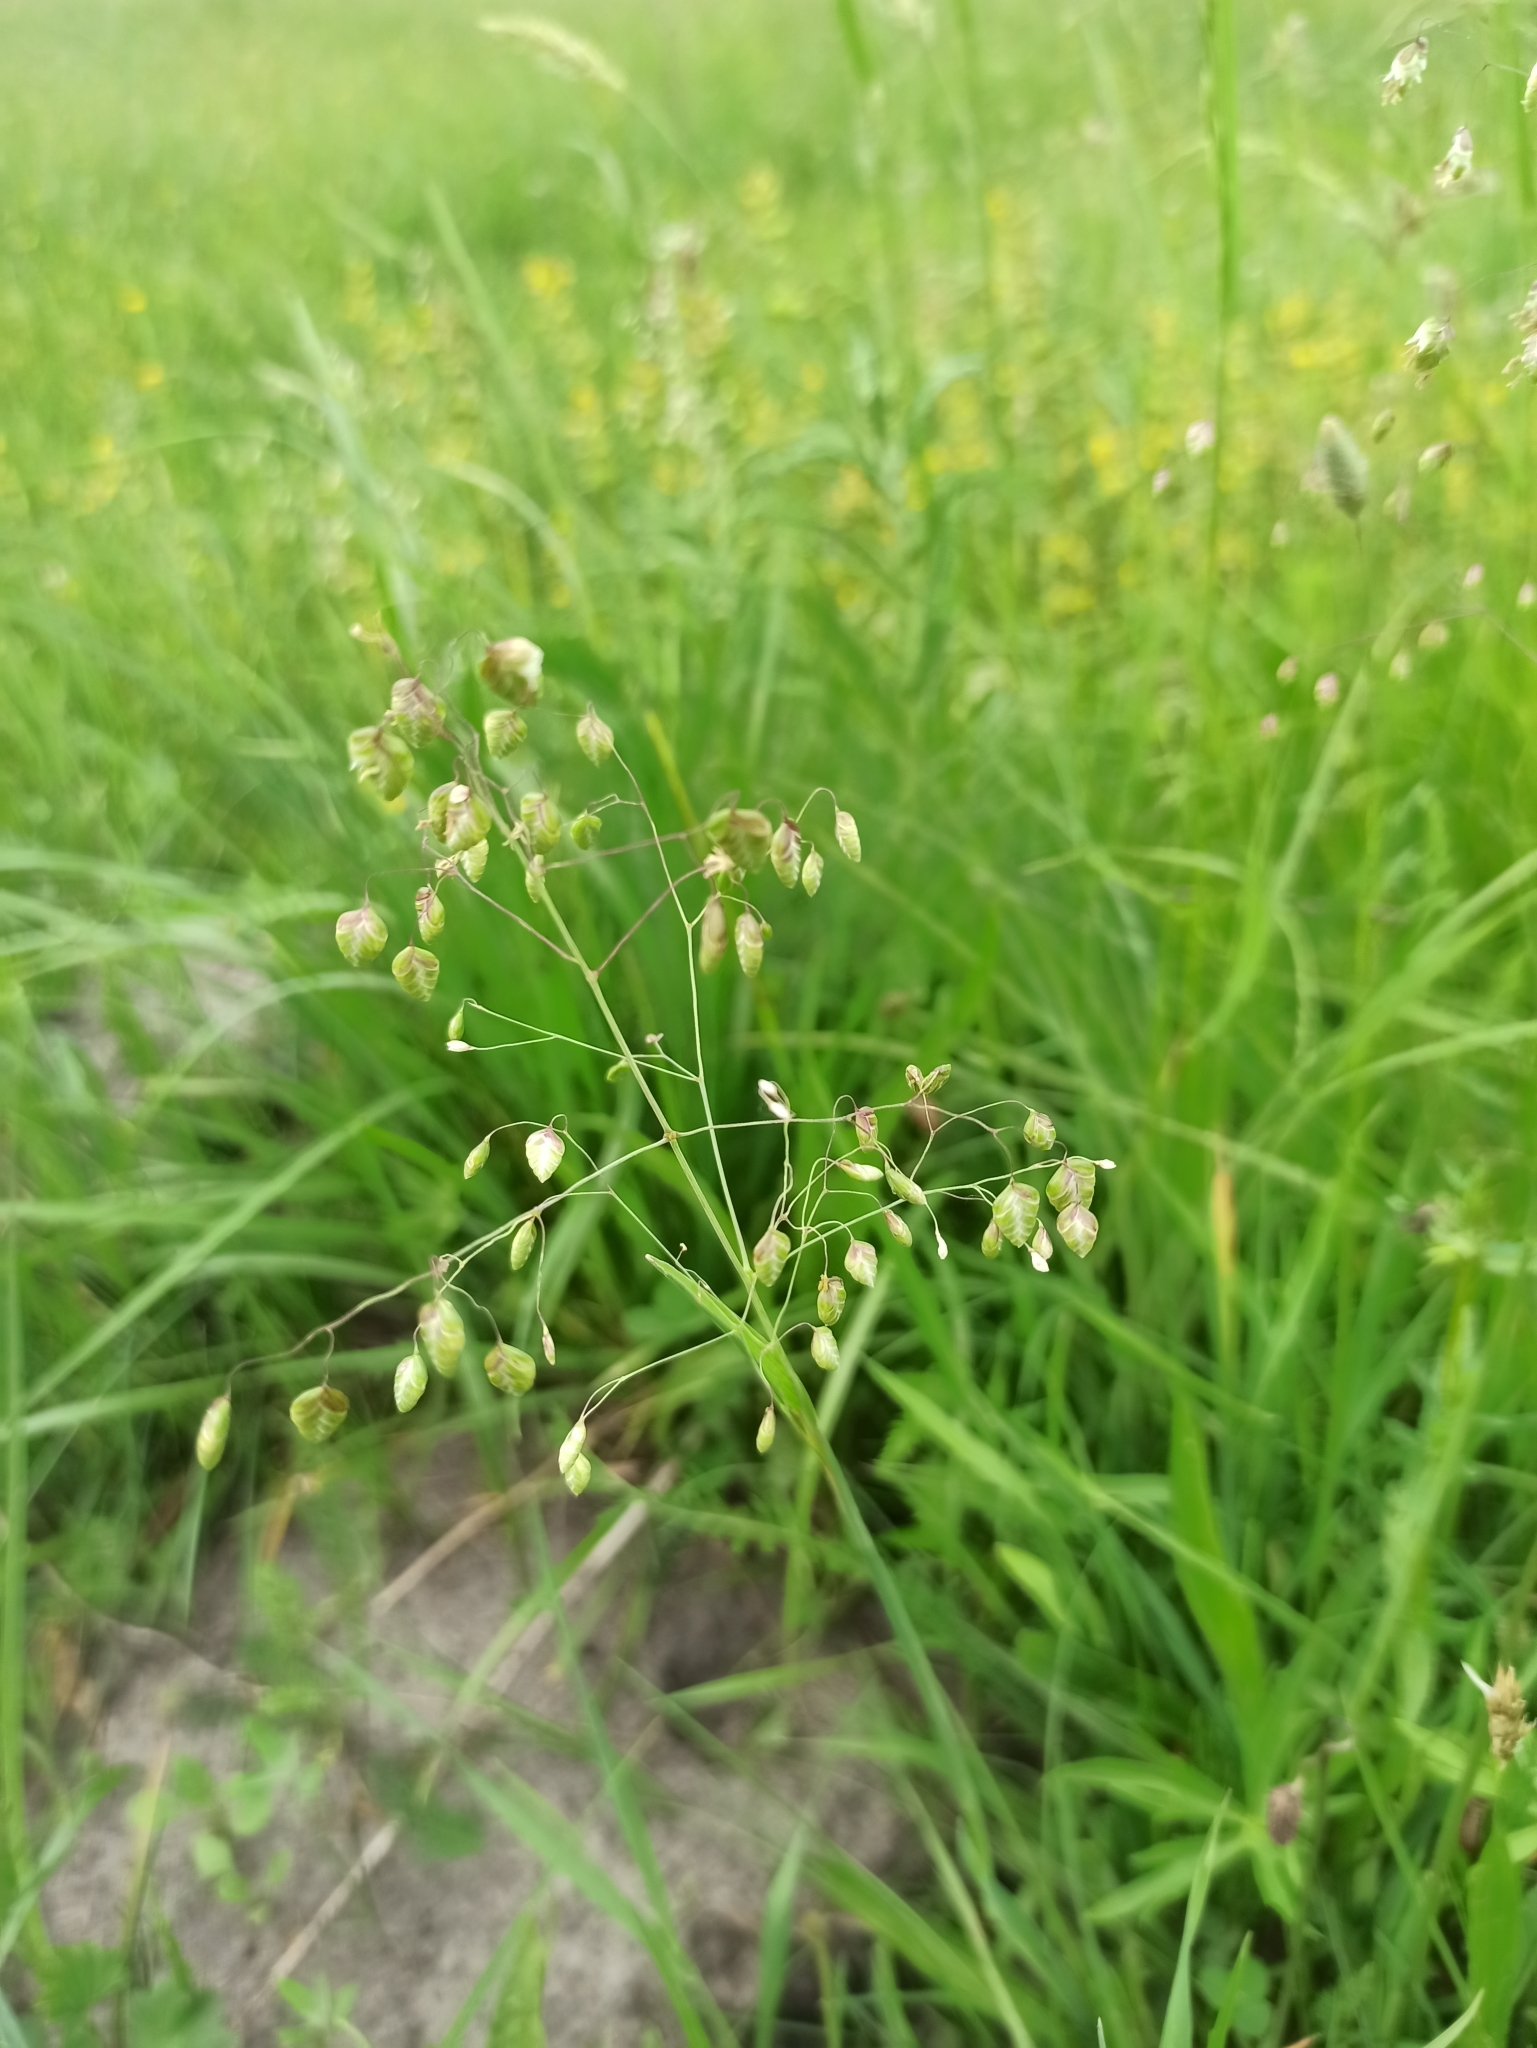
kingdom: Plantae
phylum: Tracheophyta
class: Liliopsida
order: Poales
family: Poaceae
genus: Briza
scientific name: Briza media
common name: Quaking grass
